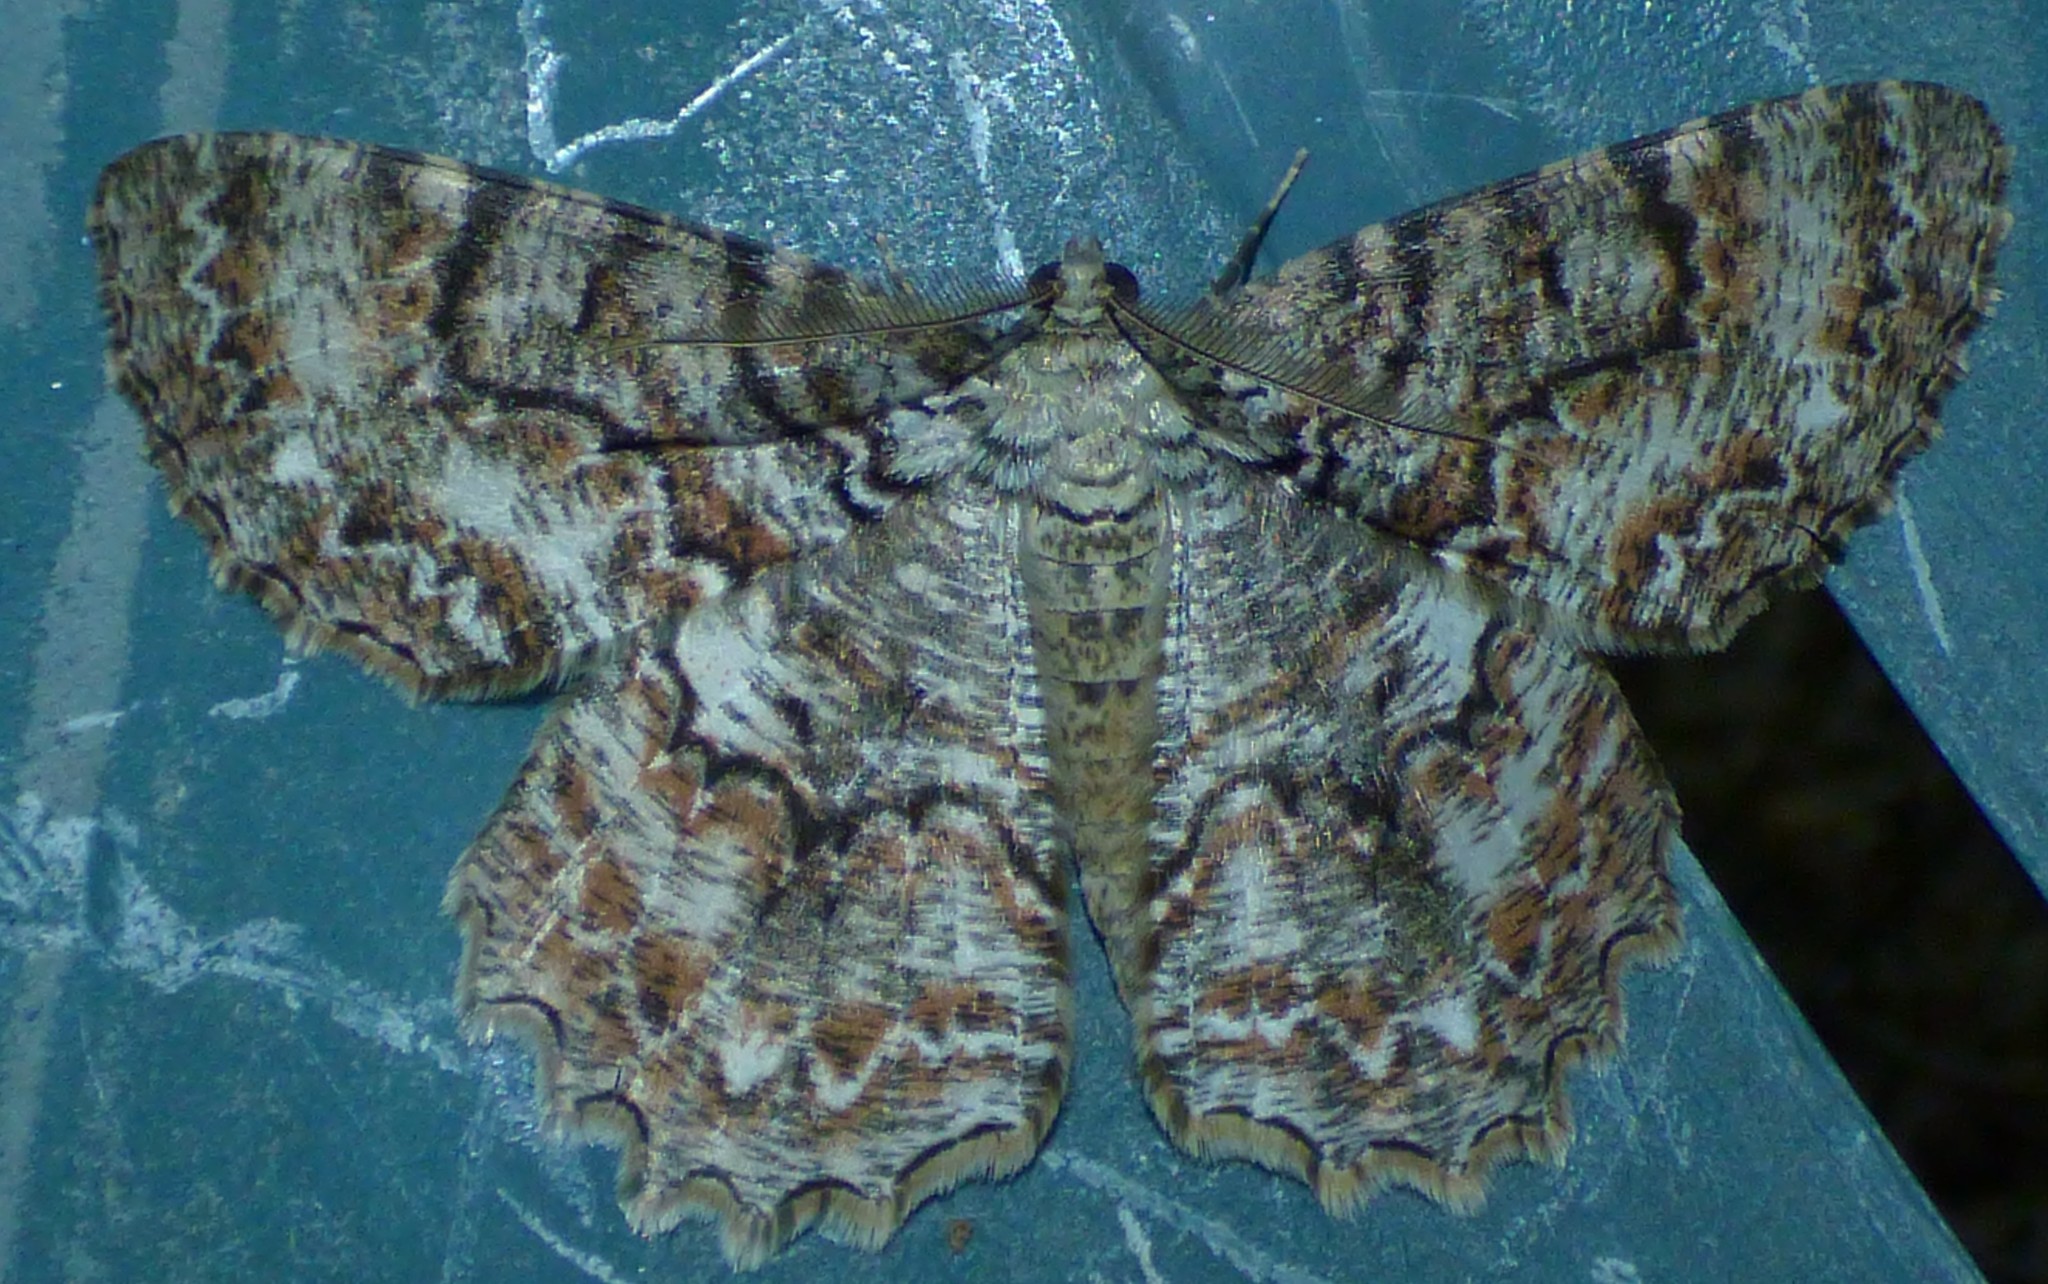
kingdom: Animalia
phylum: Arthropoda
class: Insecta
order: Lepidoptera
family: Geometridae
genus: Epimecis
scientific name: Epimecis hortaria
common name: Tulip-tree beauty
